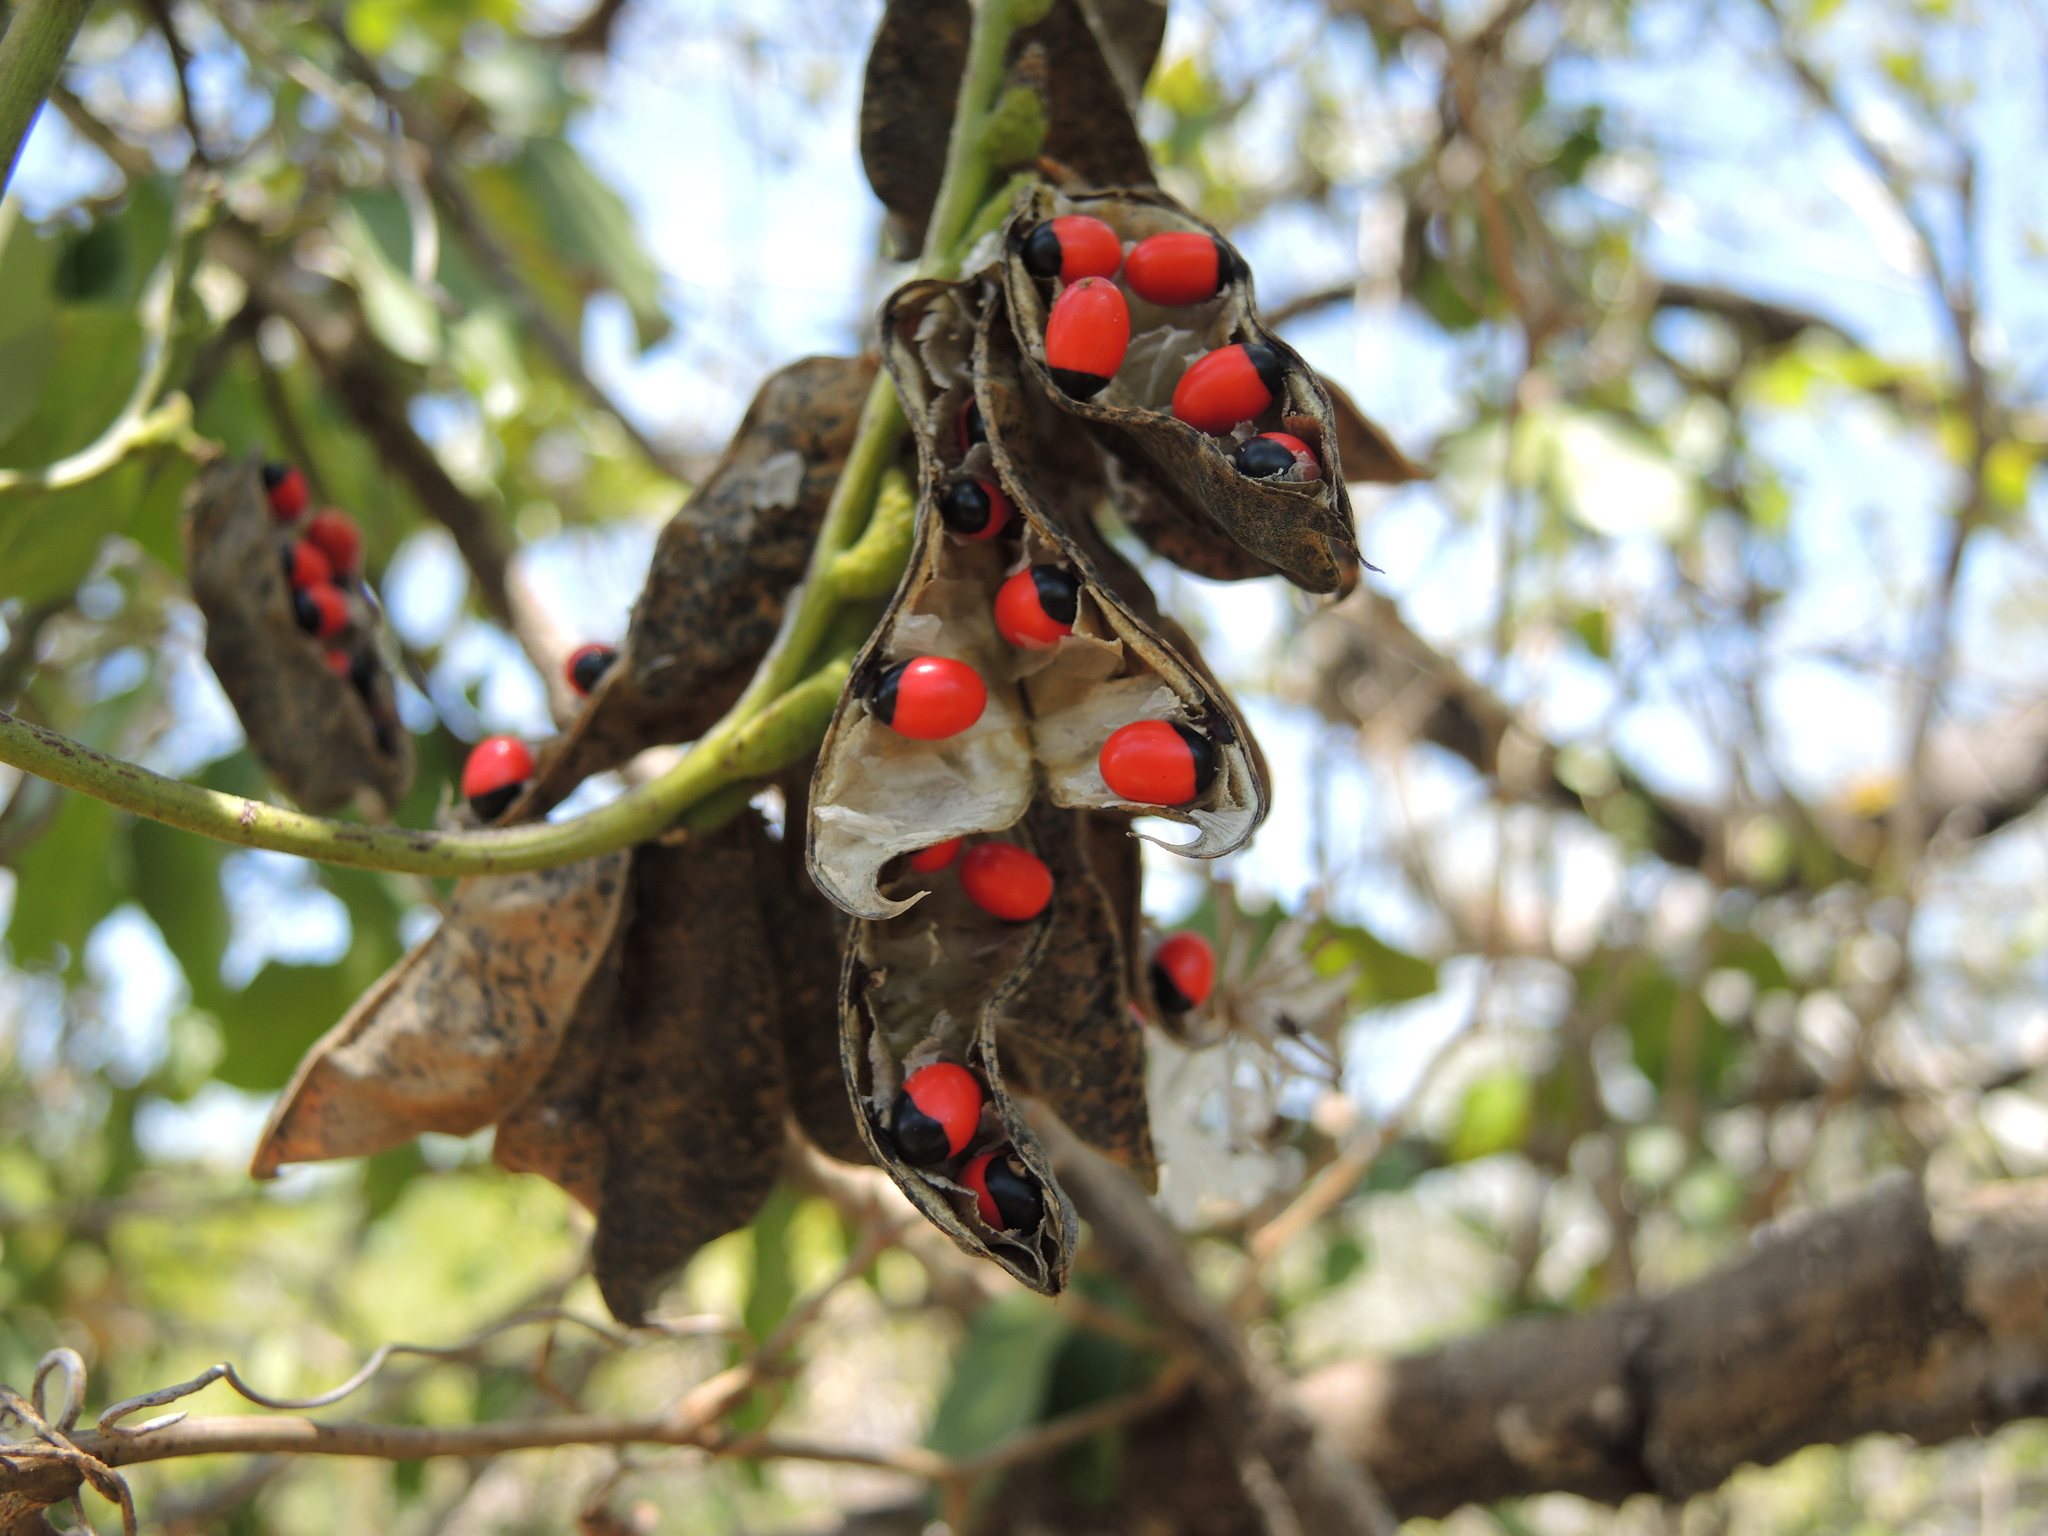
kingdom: Plantae
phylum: Tracheophyta
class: Magnoliopsida
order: Fabales
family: Fabaceae
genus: Abrus
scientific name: Abrus precatorius
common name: Rosarypea
